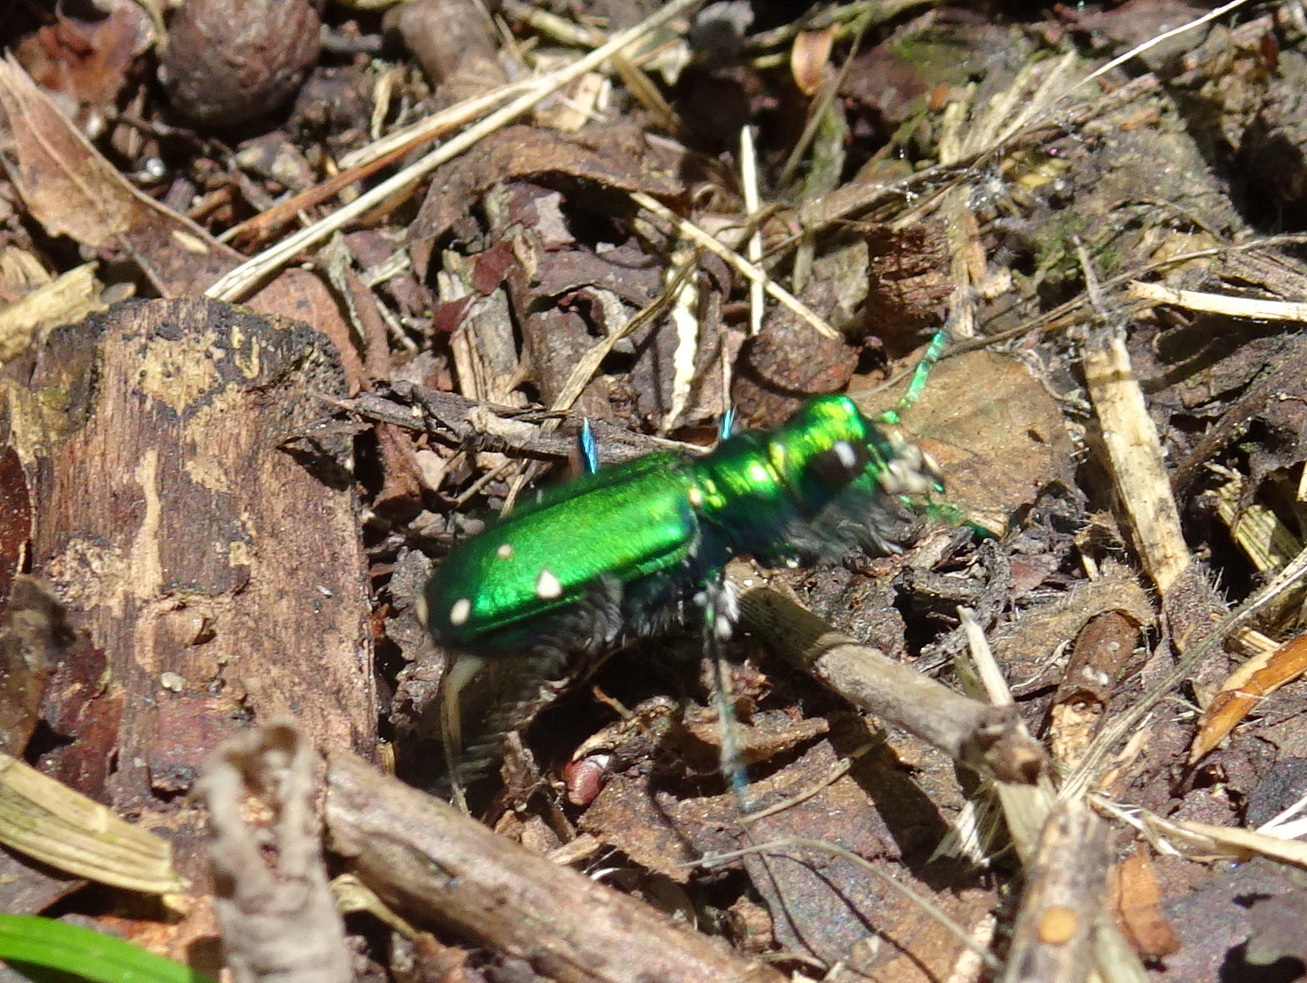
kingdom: Animalia
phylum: Arthropoda
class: Insecta
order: Coleoptera
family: Carabidae
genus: Cicindela
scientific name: Cicindela sexguttata
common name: Six-spotted tiger beetle
